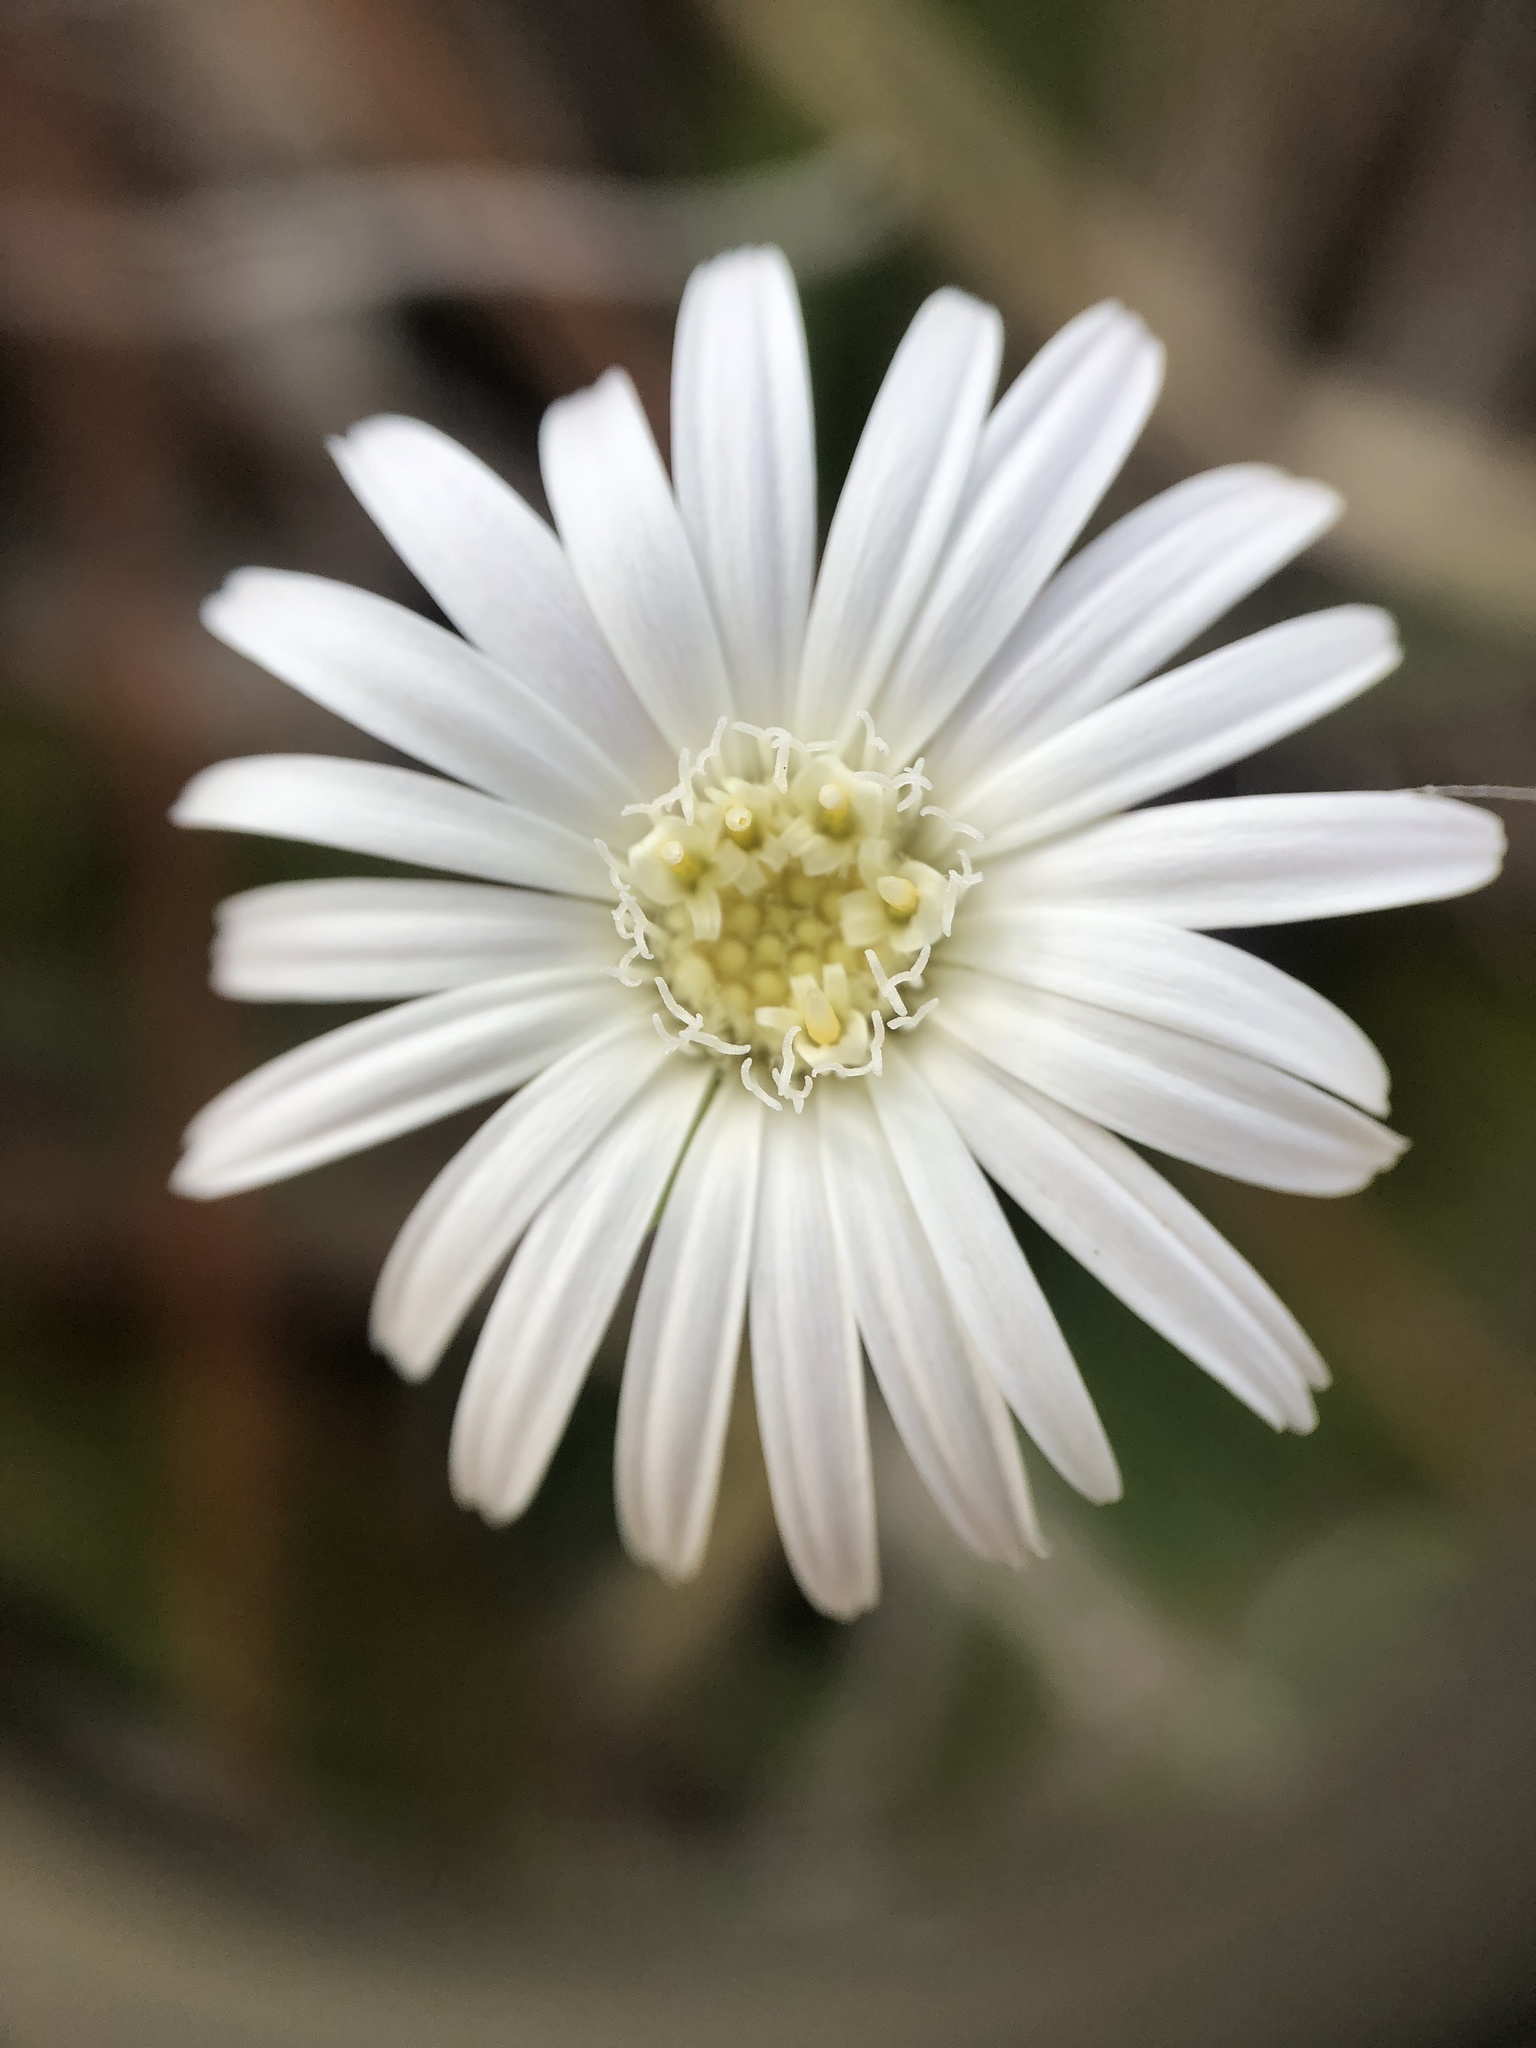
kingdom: Plantae
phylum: Tracheophyta
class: Magnoliopsida
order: Asterales
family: Asteraceae
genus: Chaptalia
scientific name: Chaptalia tomentosa
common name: Woolly sunbonnet
